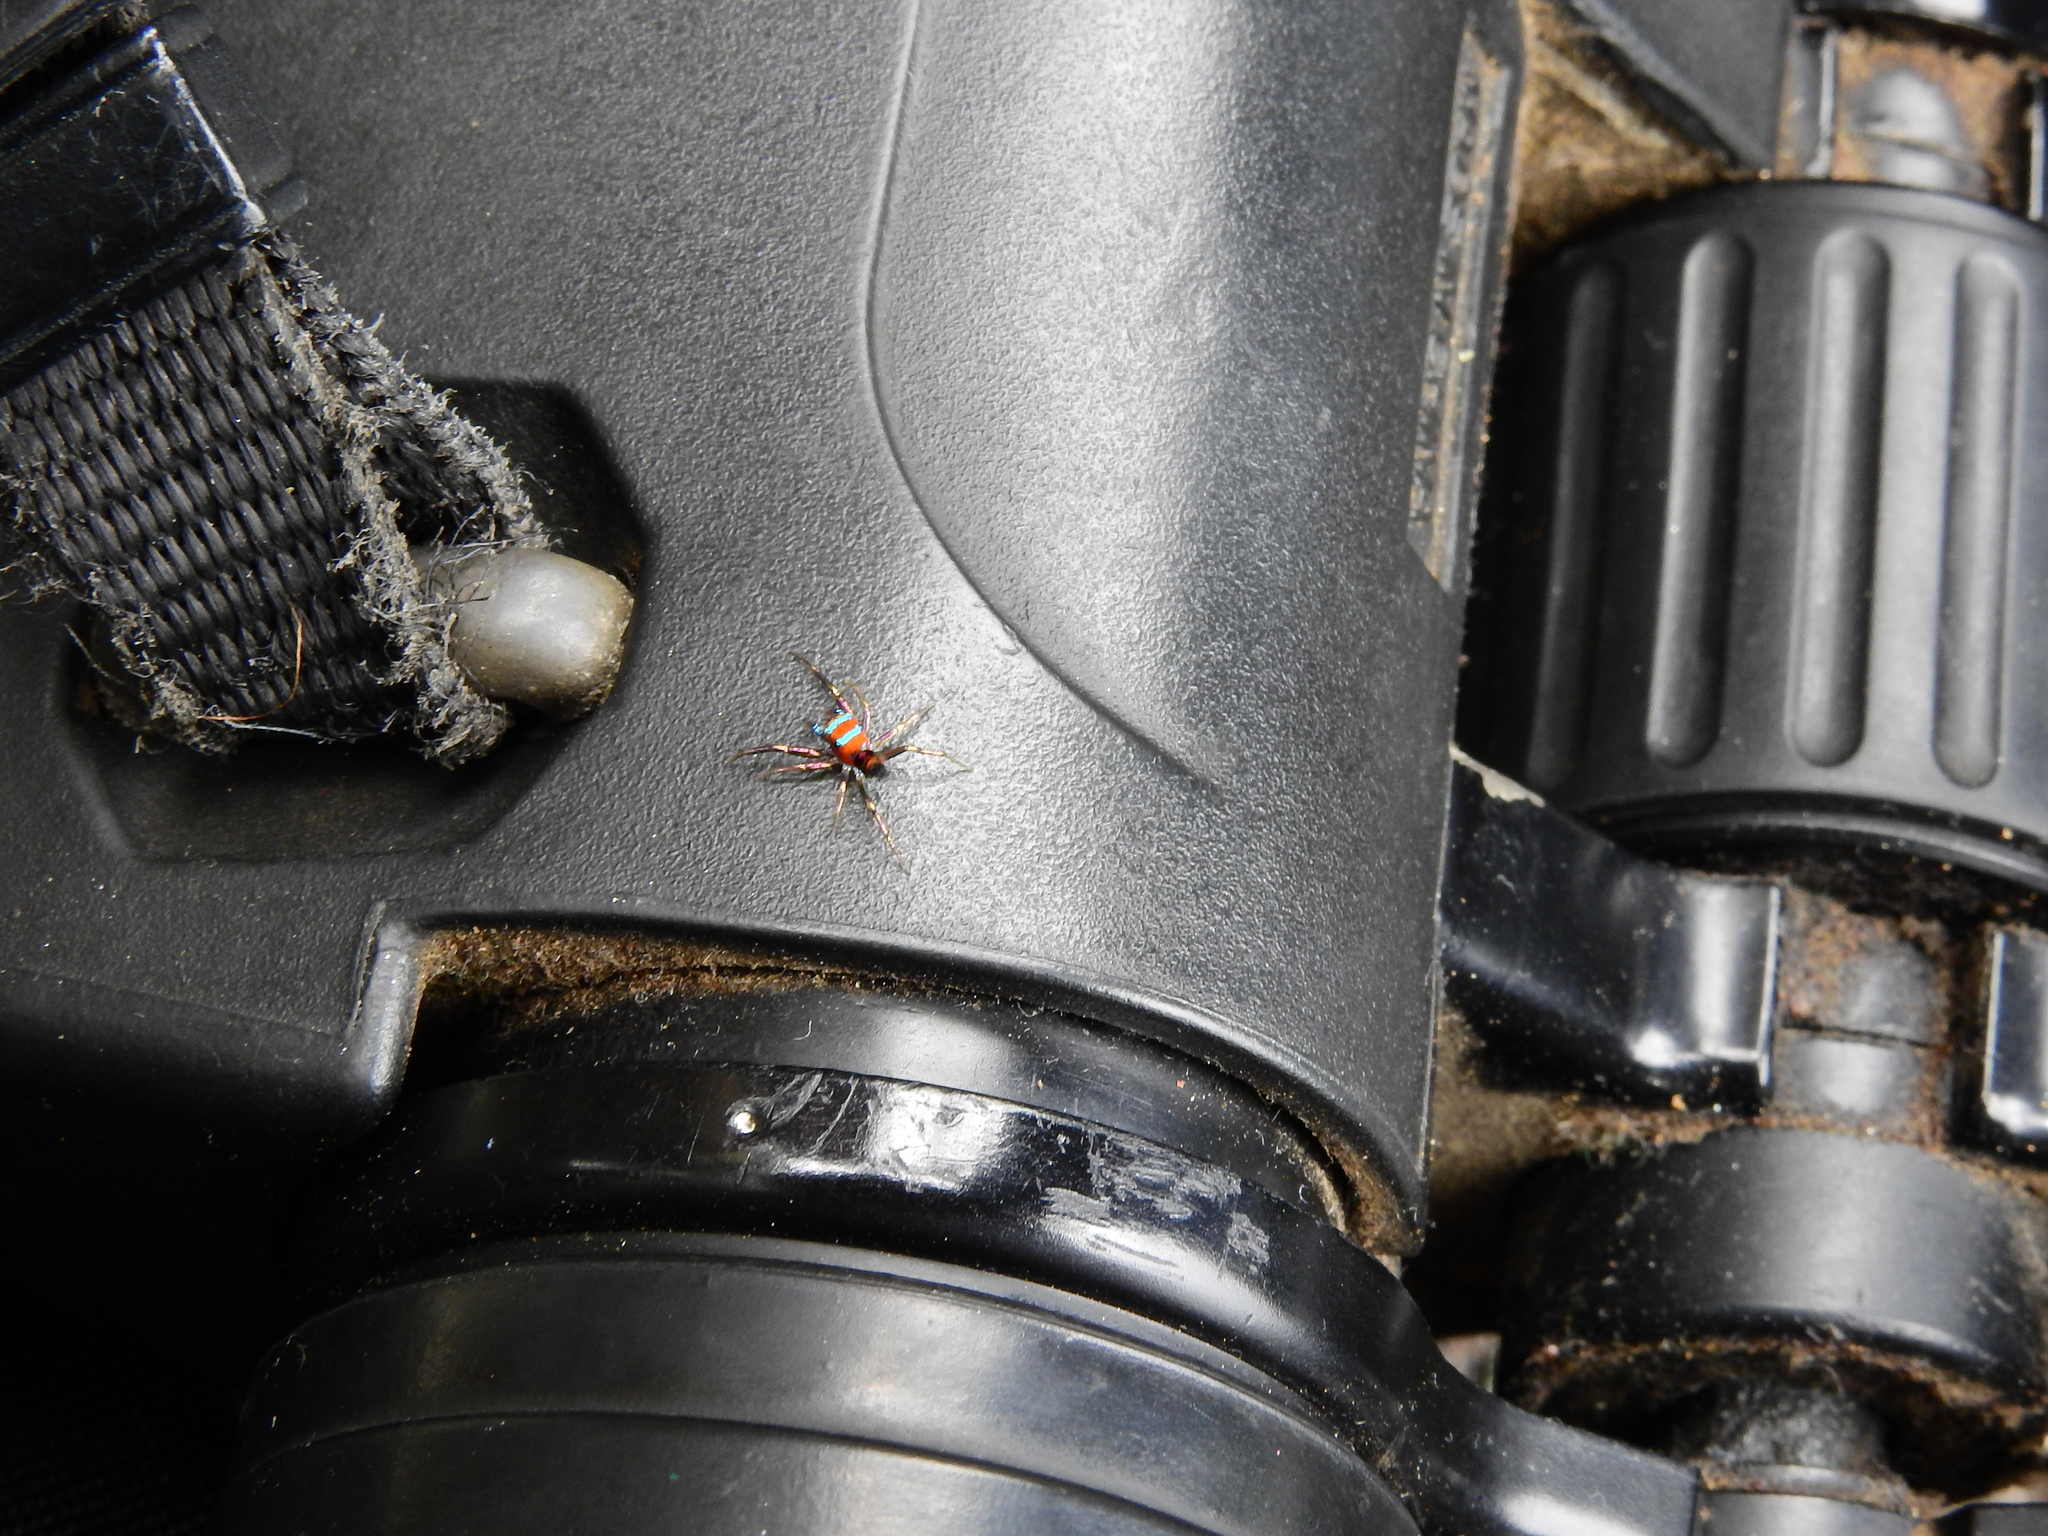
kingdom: Animalia
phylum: Arthropoda
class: Arachnida
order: Araneae
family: Salticidae
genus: Chrysilla
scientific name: Chrysilla volupe
